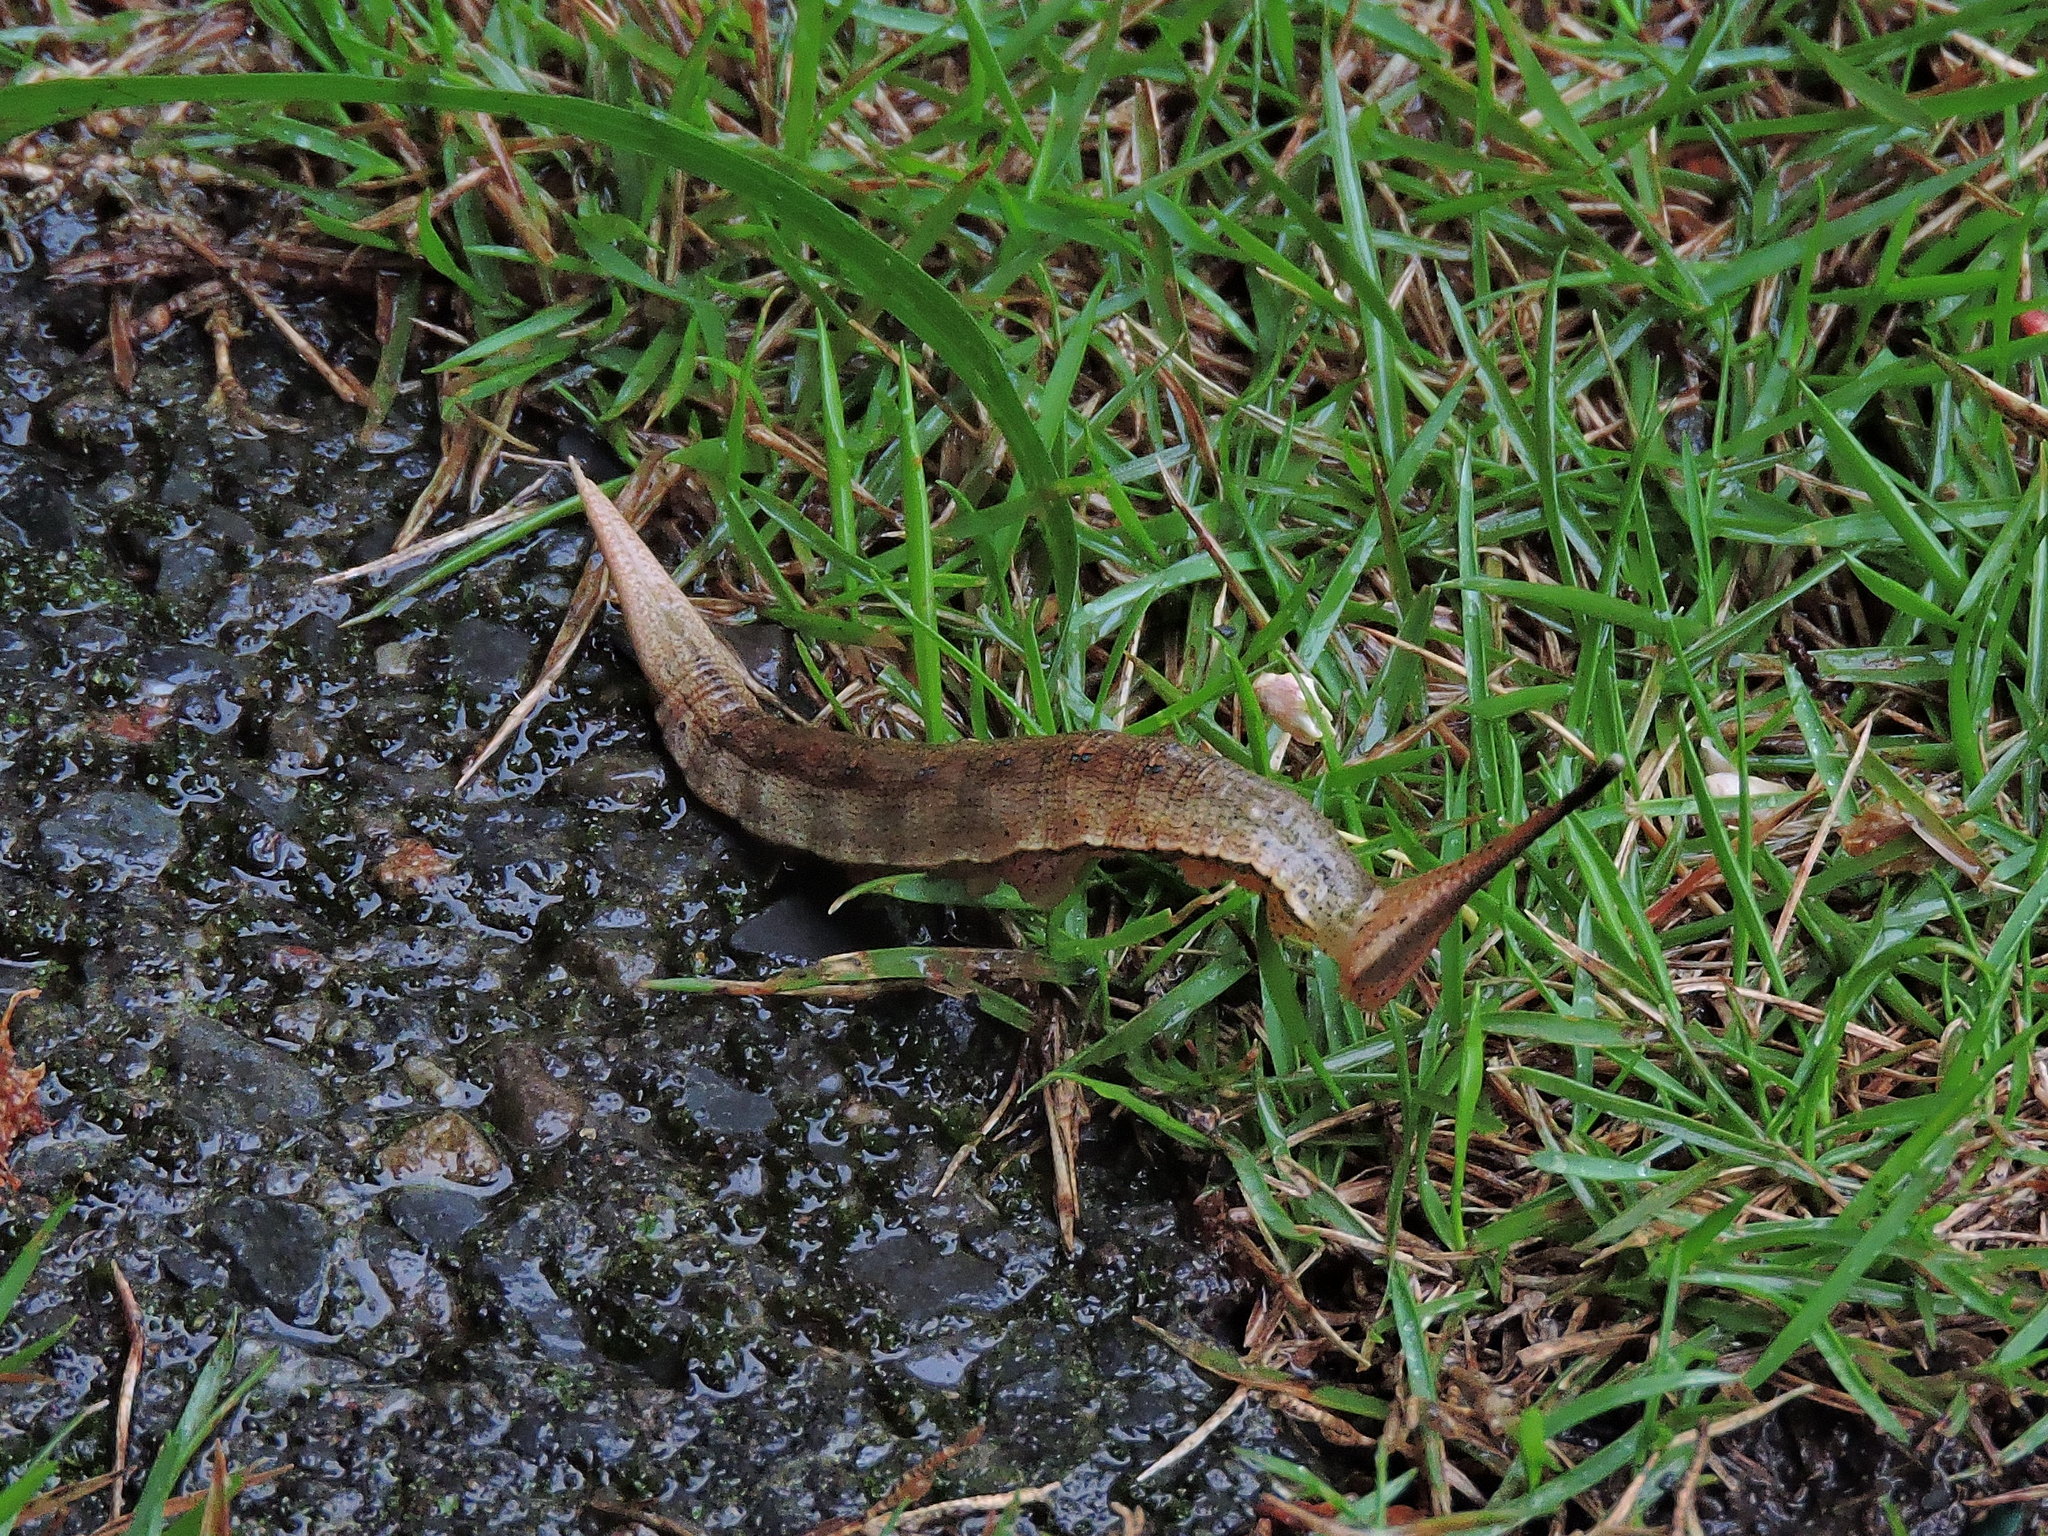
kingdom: Animalia
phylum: Arthropoda
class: Insecta
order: Lepidoptera
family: Nymphalidae
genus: Penthema
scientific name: Penthema formosanum
